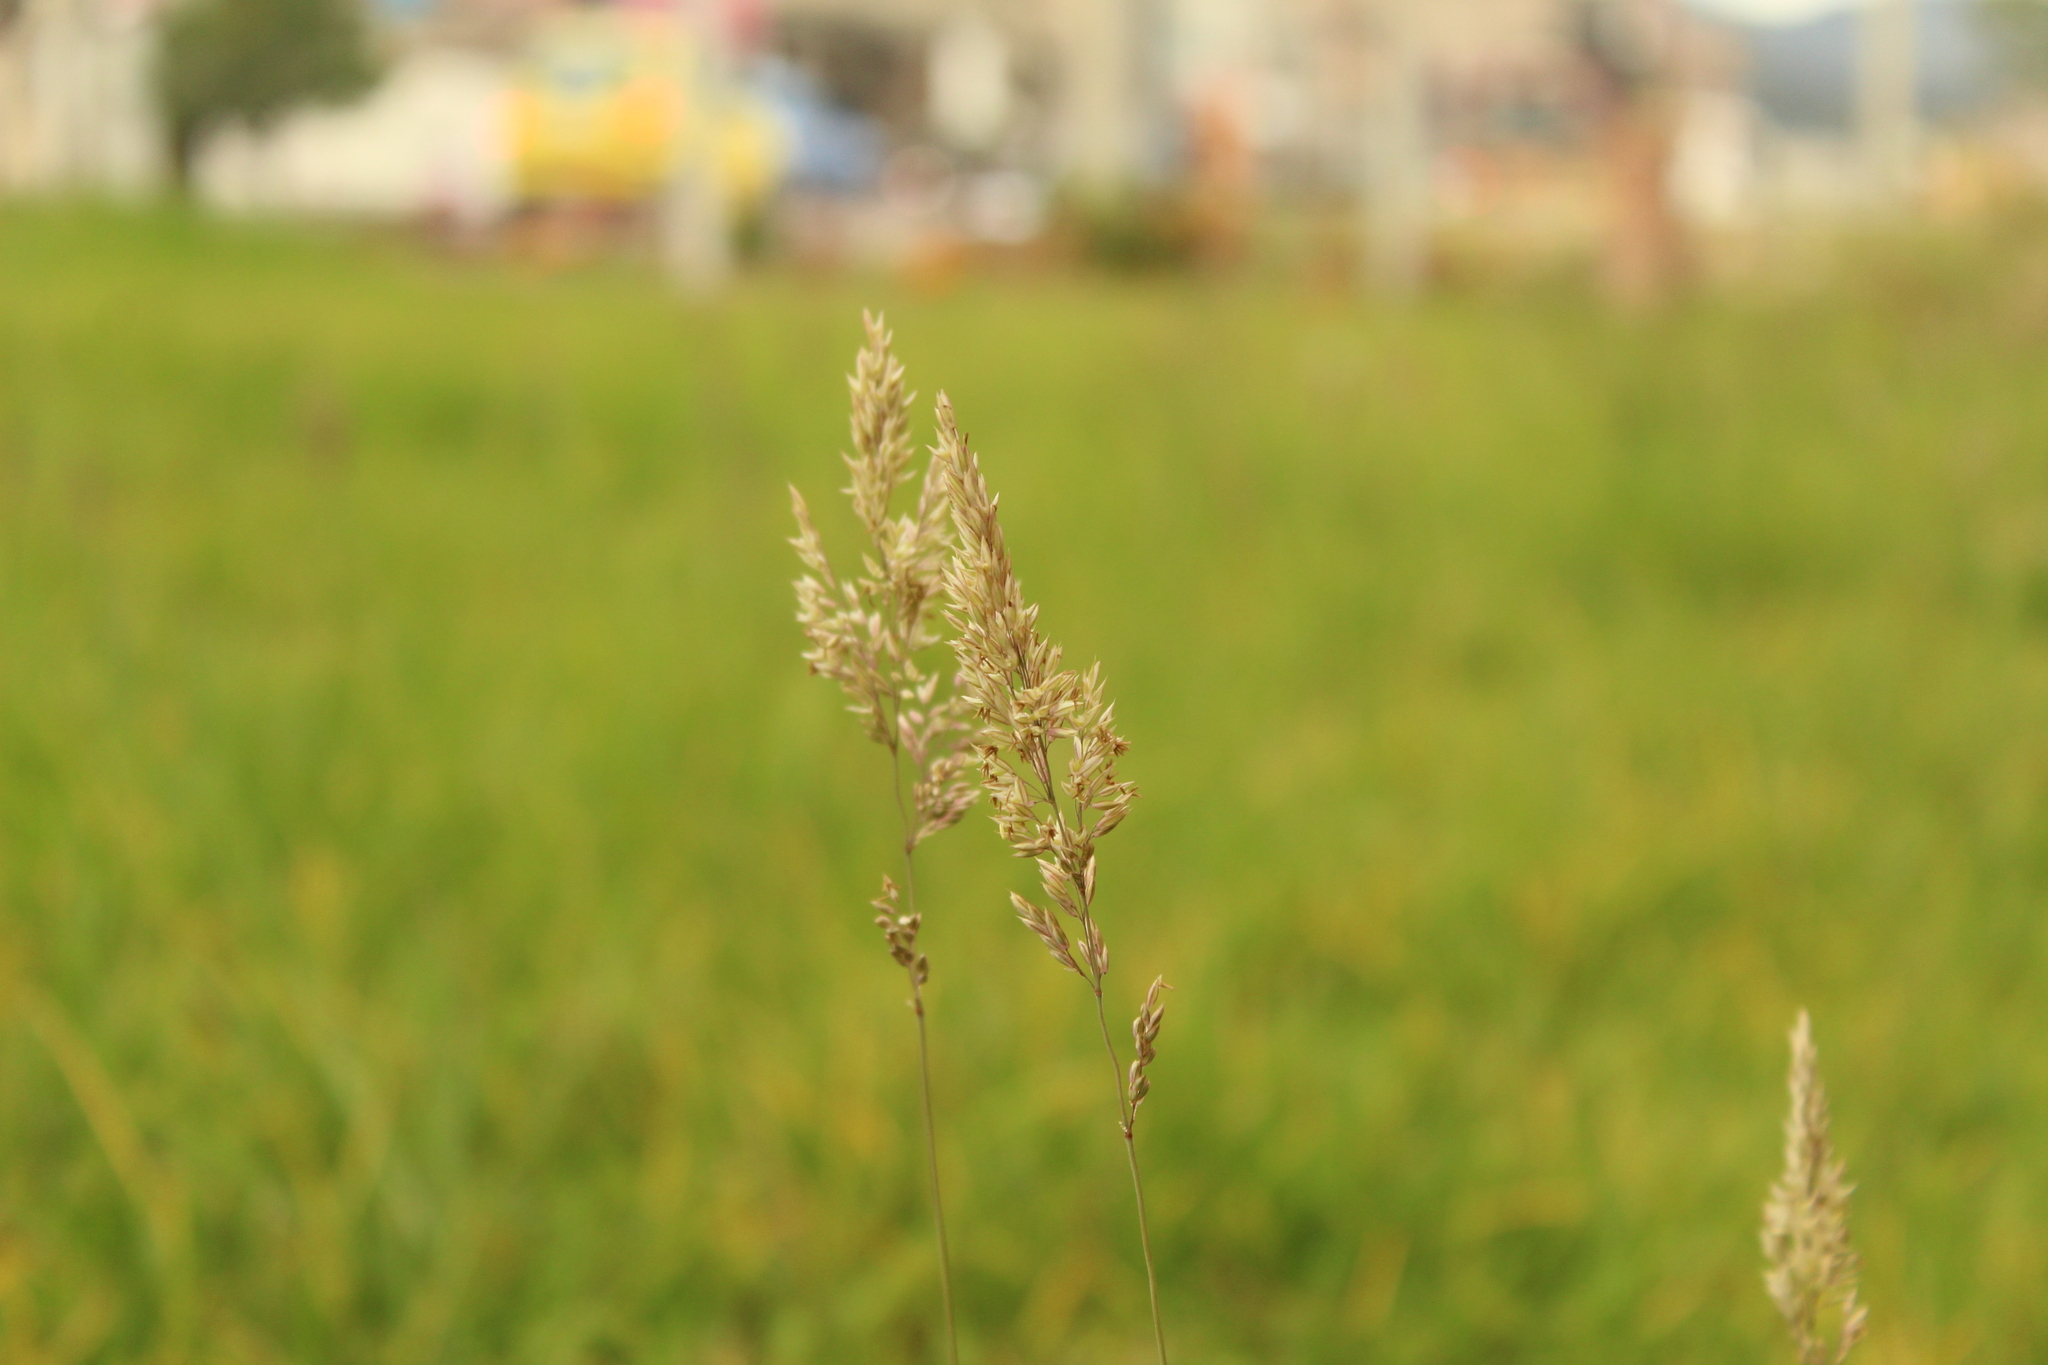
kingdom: Plantae
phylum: Tracheophyta
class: Liliopsida
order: Poales
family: Poaceae
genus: Holcus
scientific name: Holcus lanatus
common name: Yorkshire-fog
